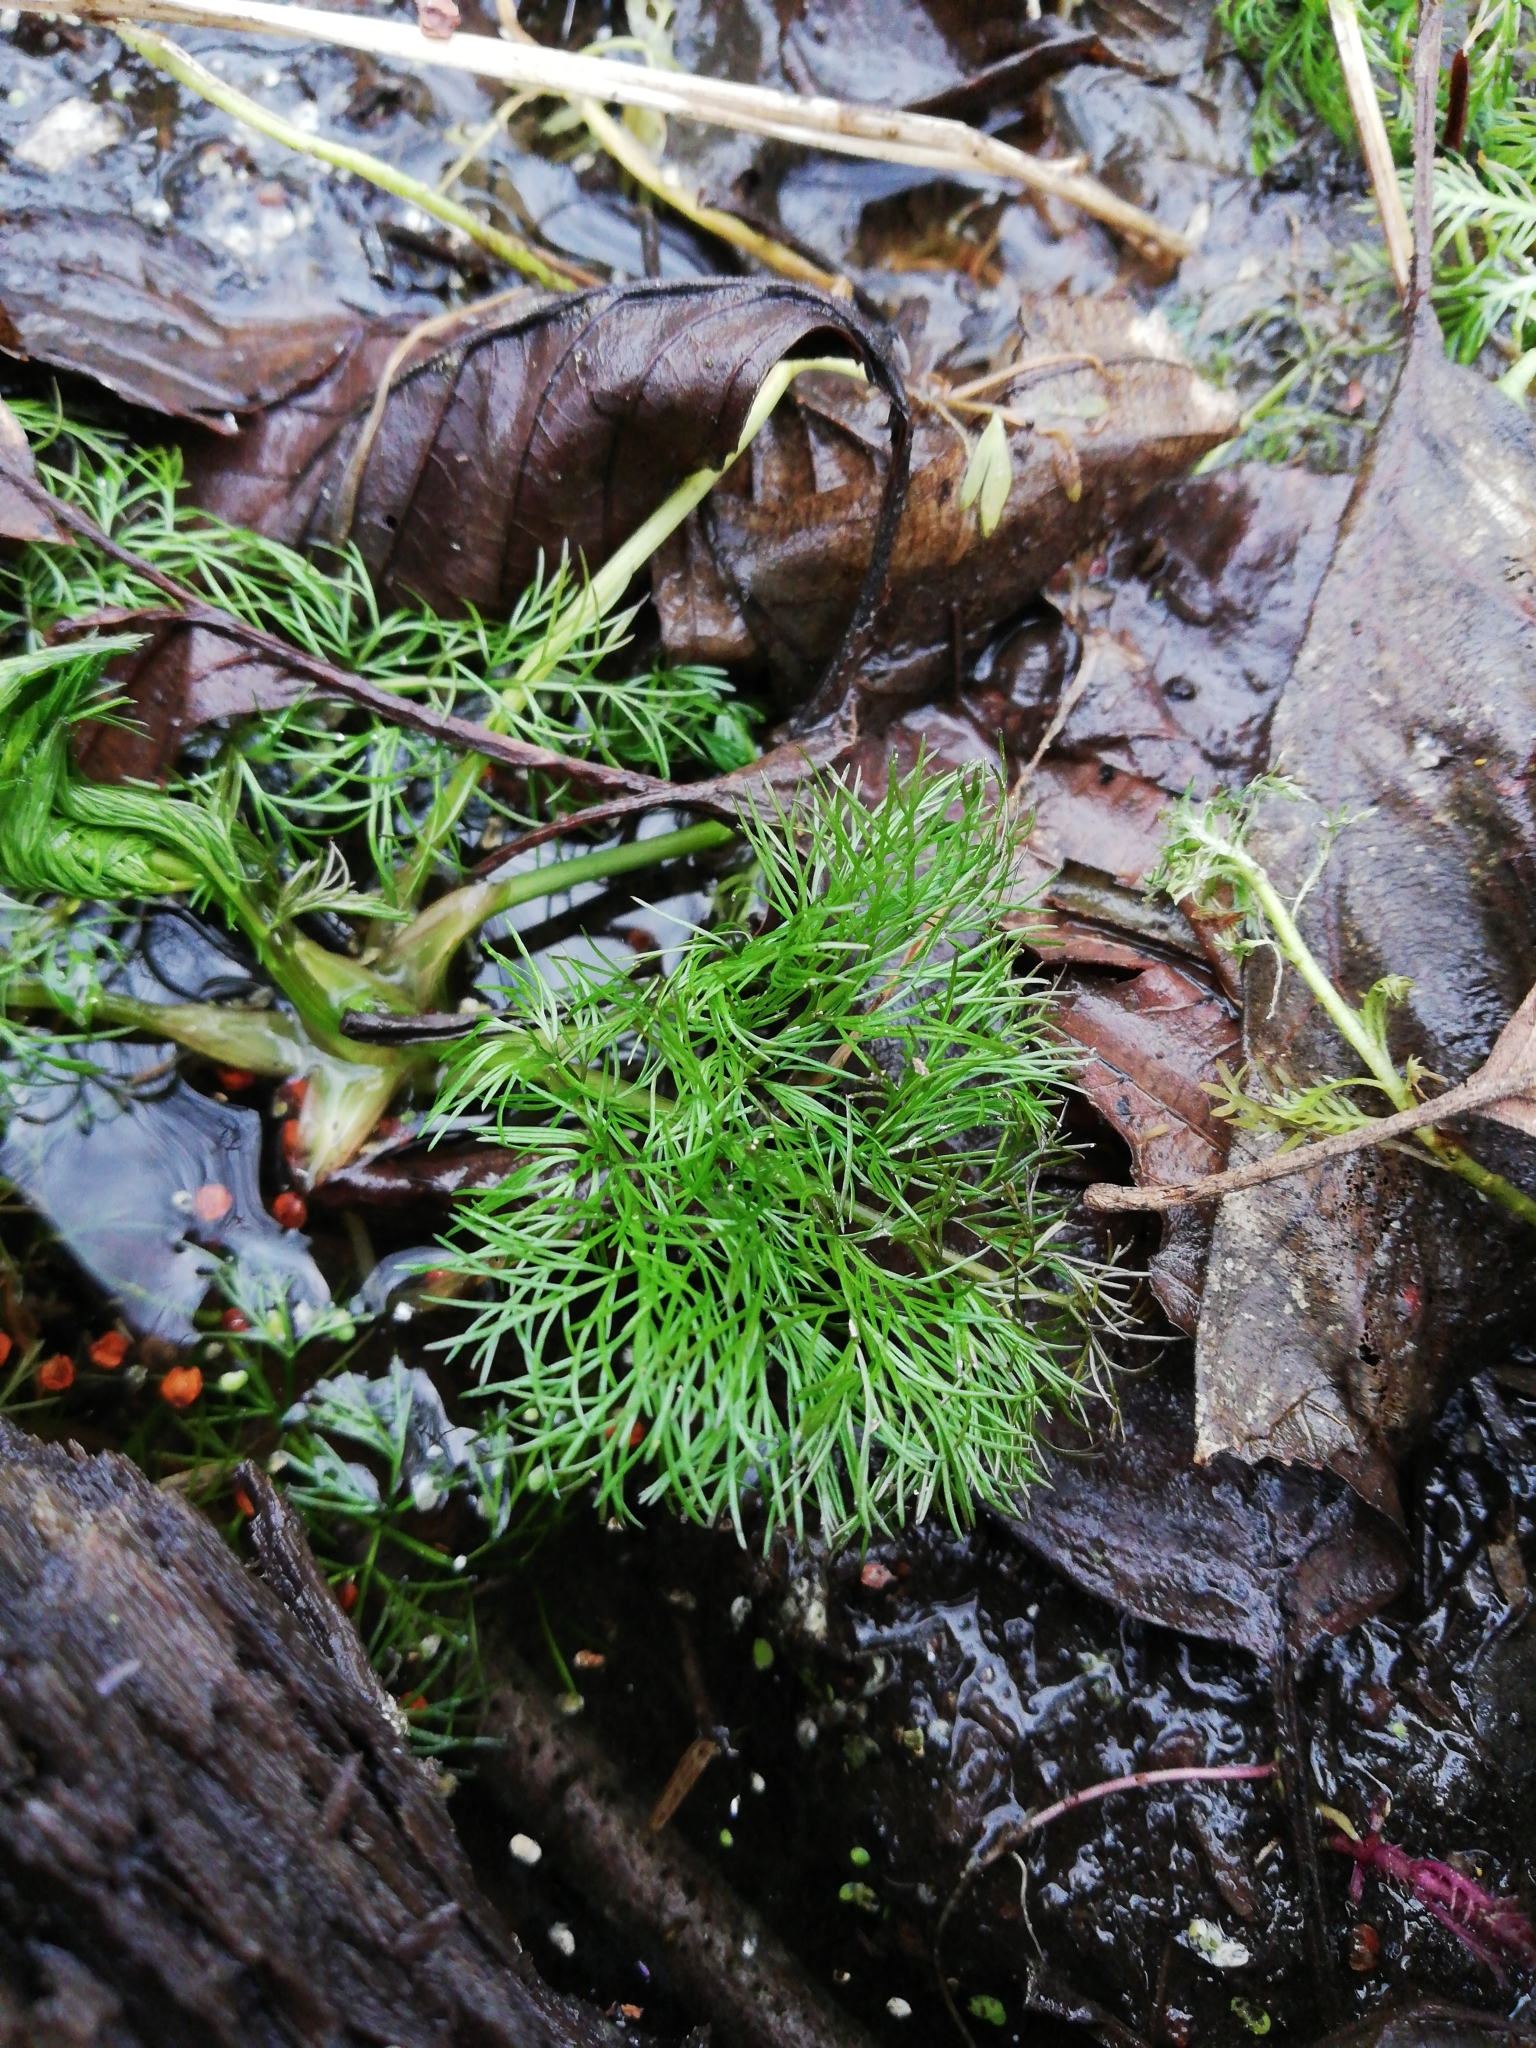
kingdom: Plantae
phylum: Tracheophyta
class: Magnoliopsida
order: Apiales
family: Apiaceae
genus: Oenanthe
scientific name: Oenanthe aquatica
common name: Fine-leaved water-dropwort
